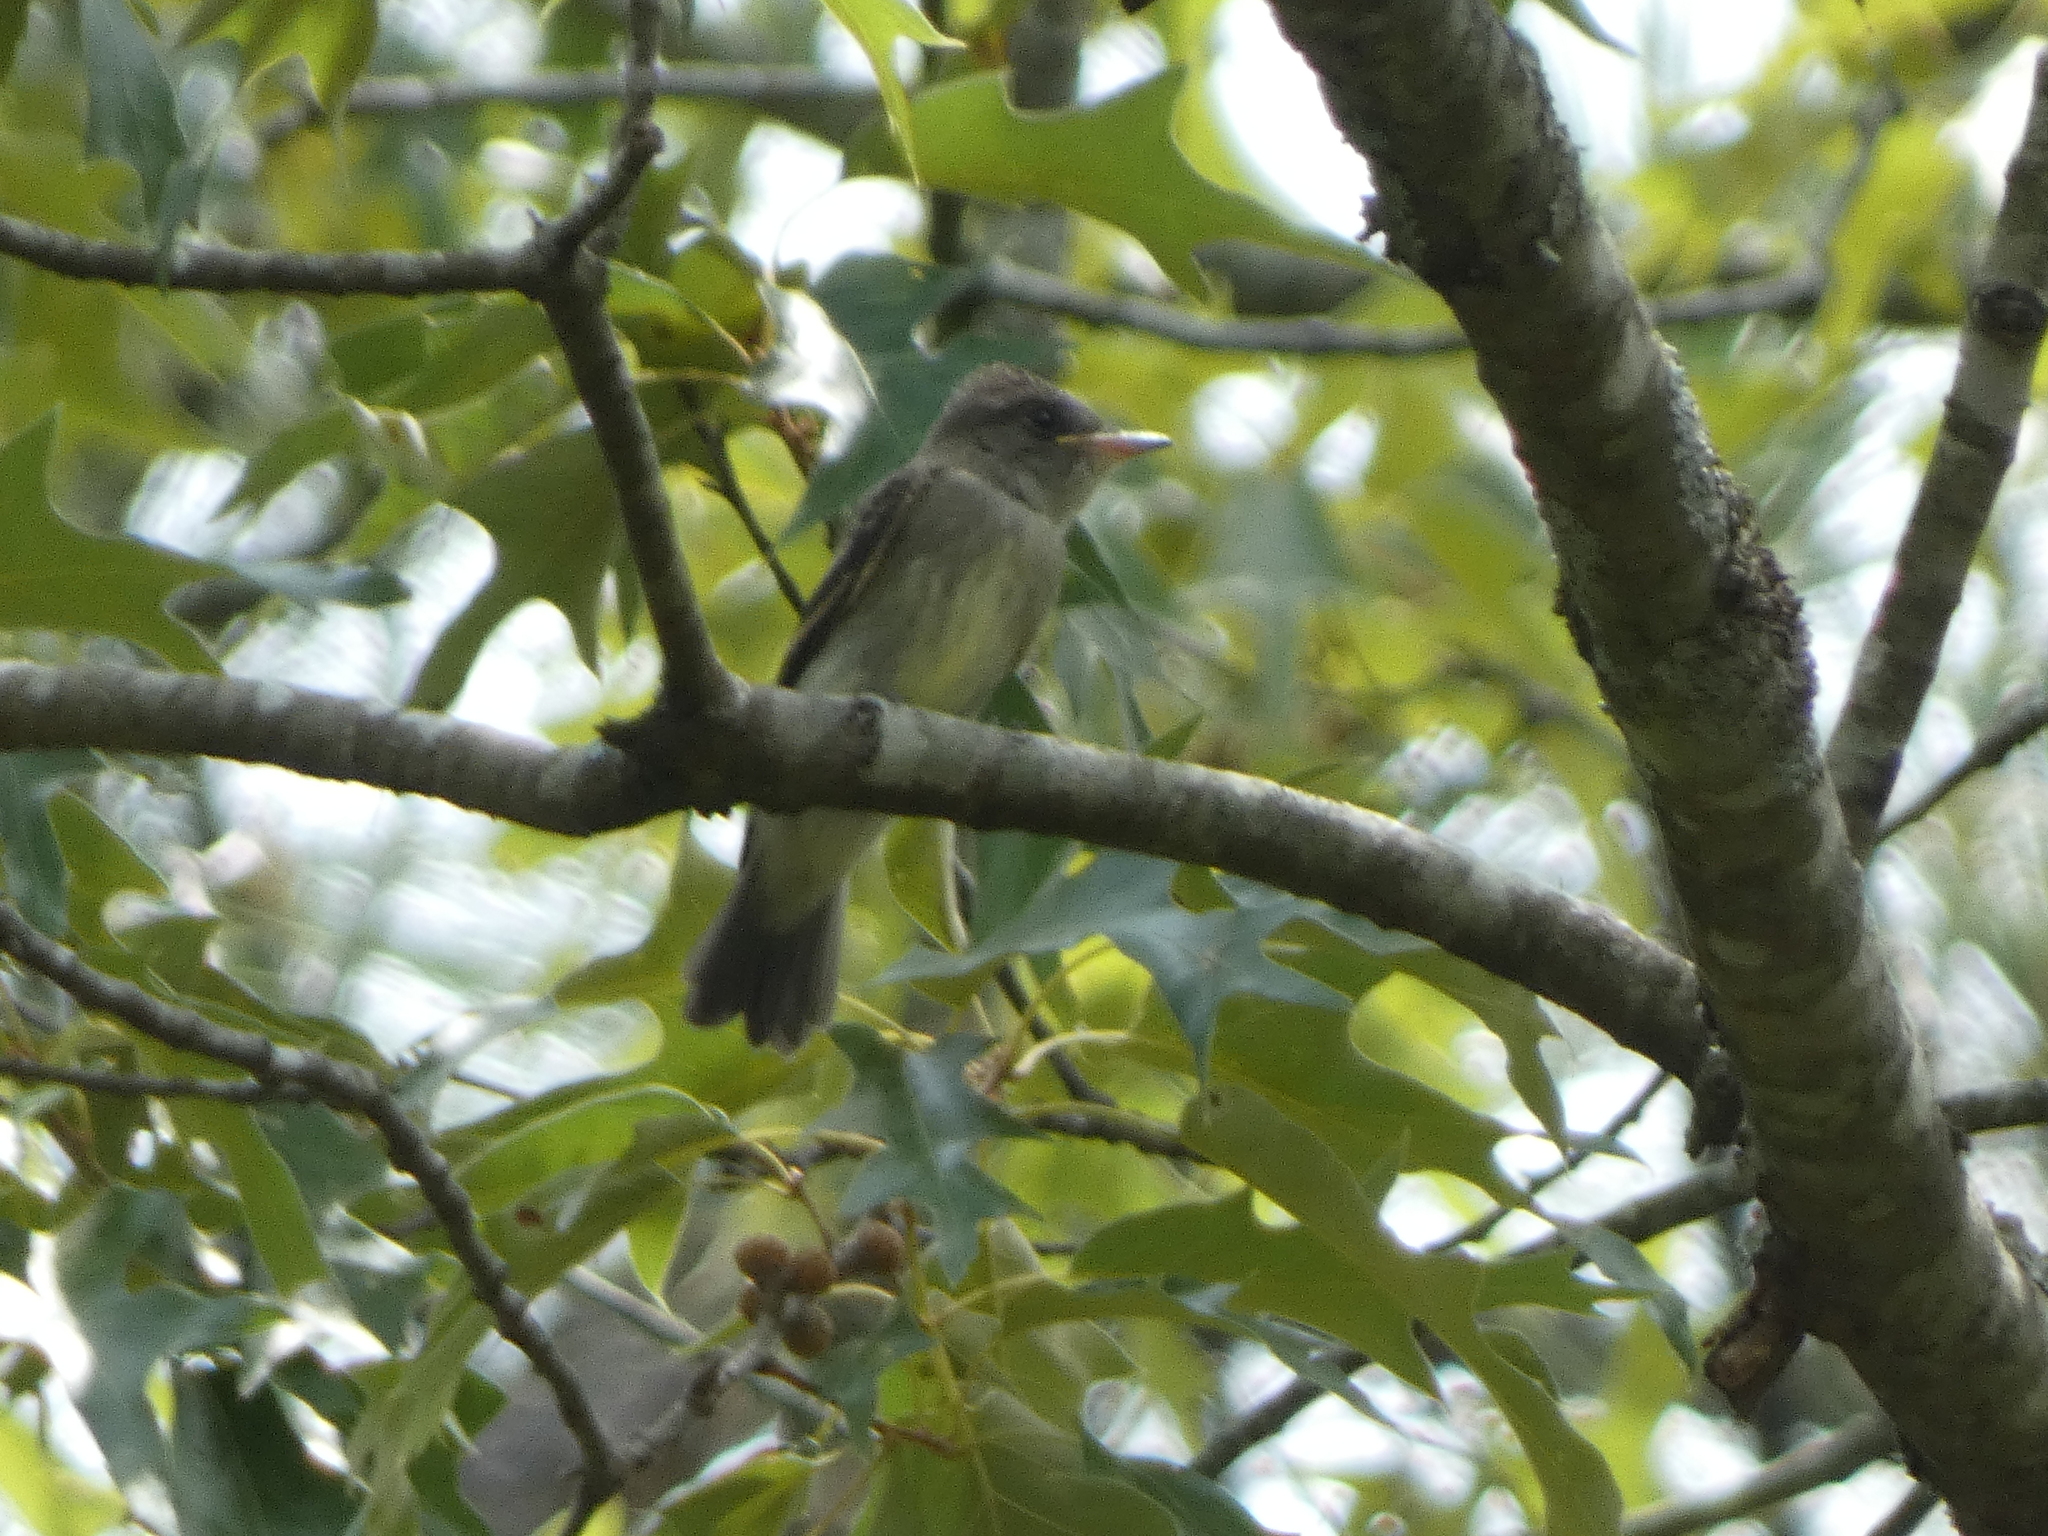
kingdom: Animalia
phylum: Chordata
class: Aves
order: Passeriformes
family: Tyrannidae
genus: Contopus
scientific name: Contopus virens
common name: Eastern wood-pewee
